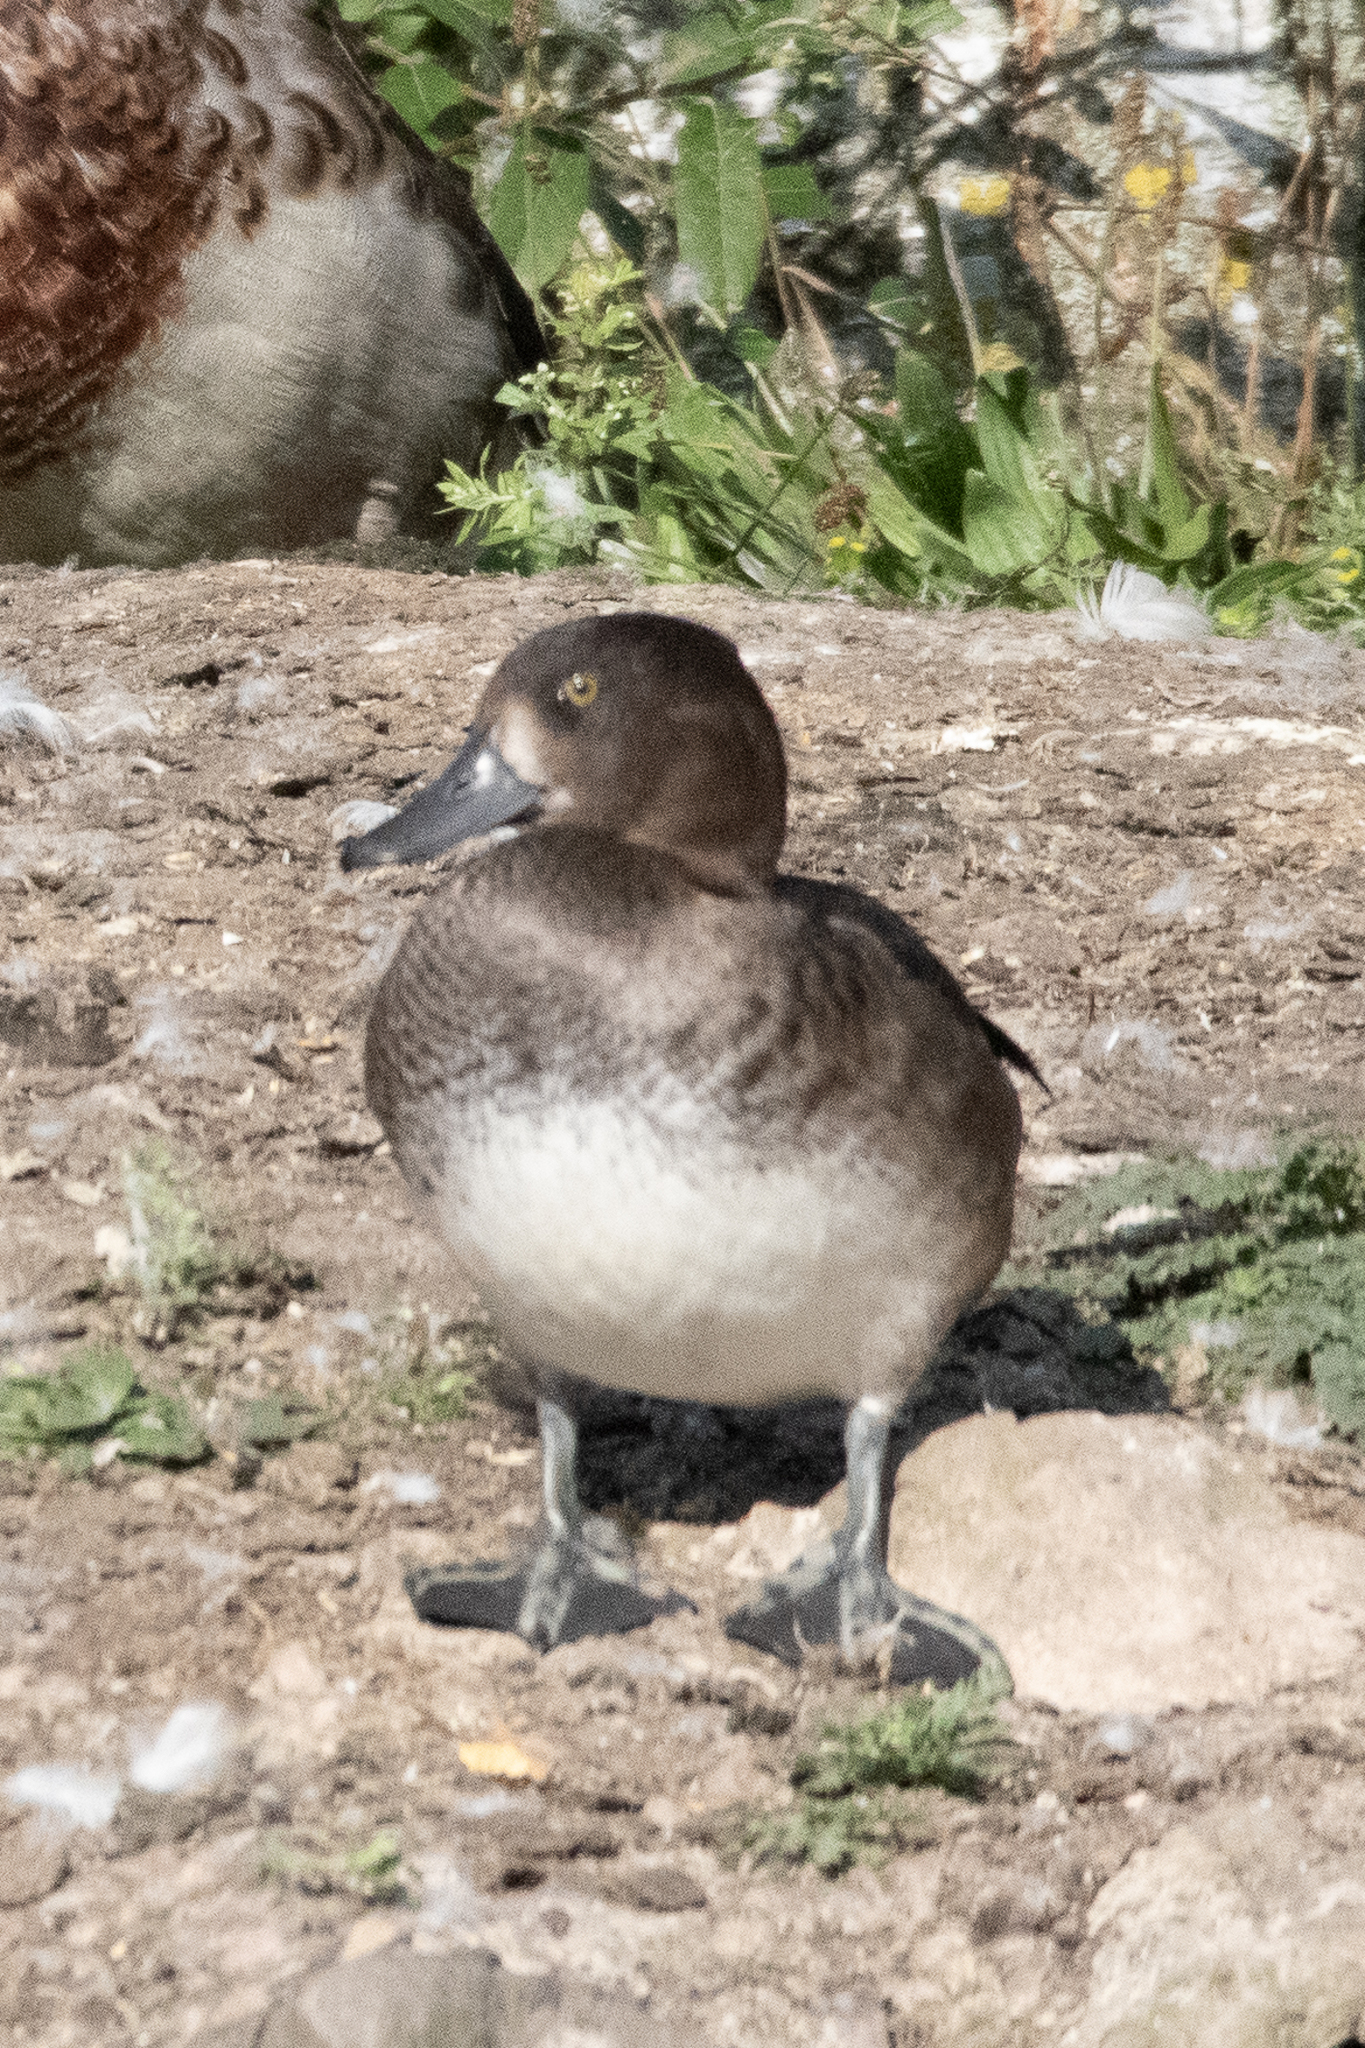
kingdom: Animalia
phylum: Chordata
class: Aves
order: Anseriformes
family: Anatidae
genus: Aythya
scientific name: Aythya fuligula
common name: Tufted duck
